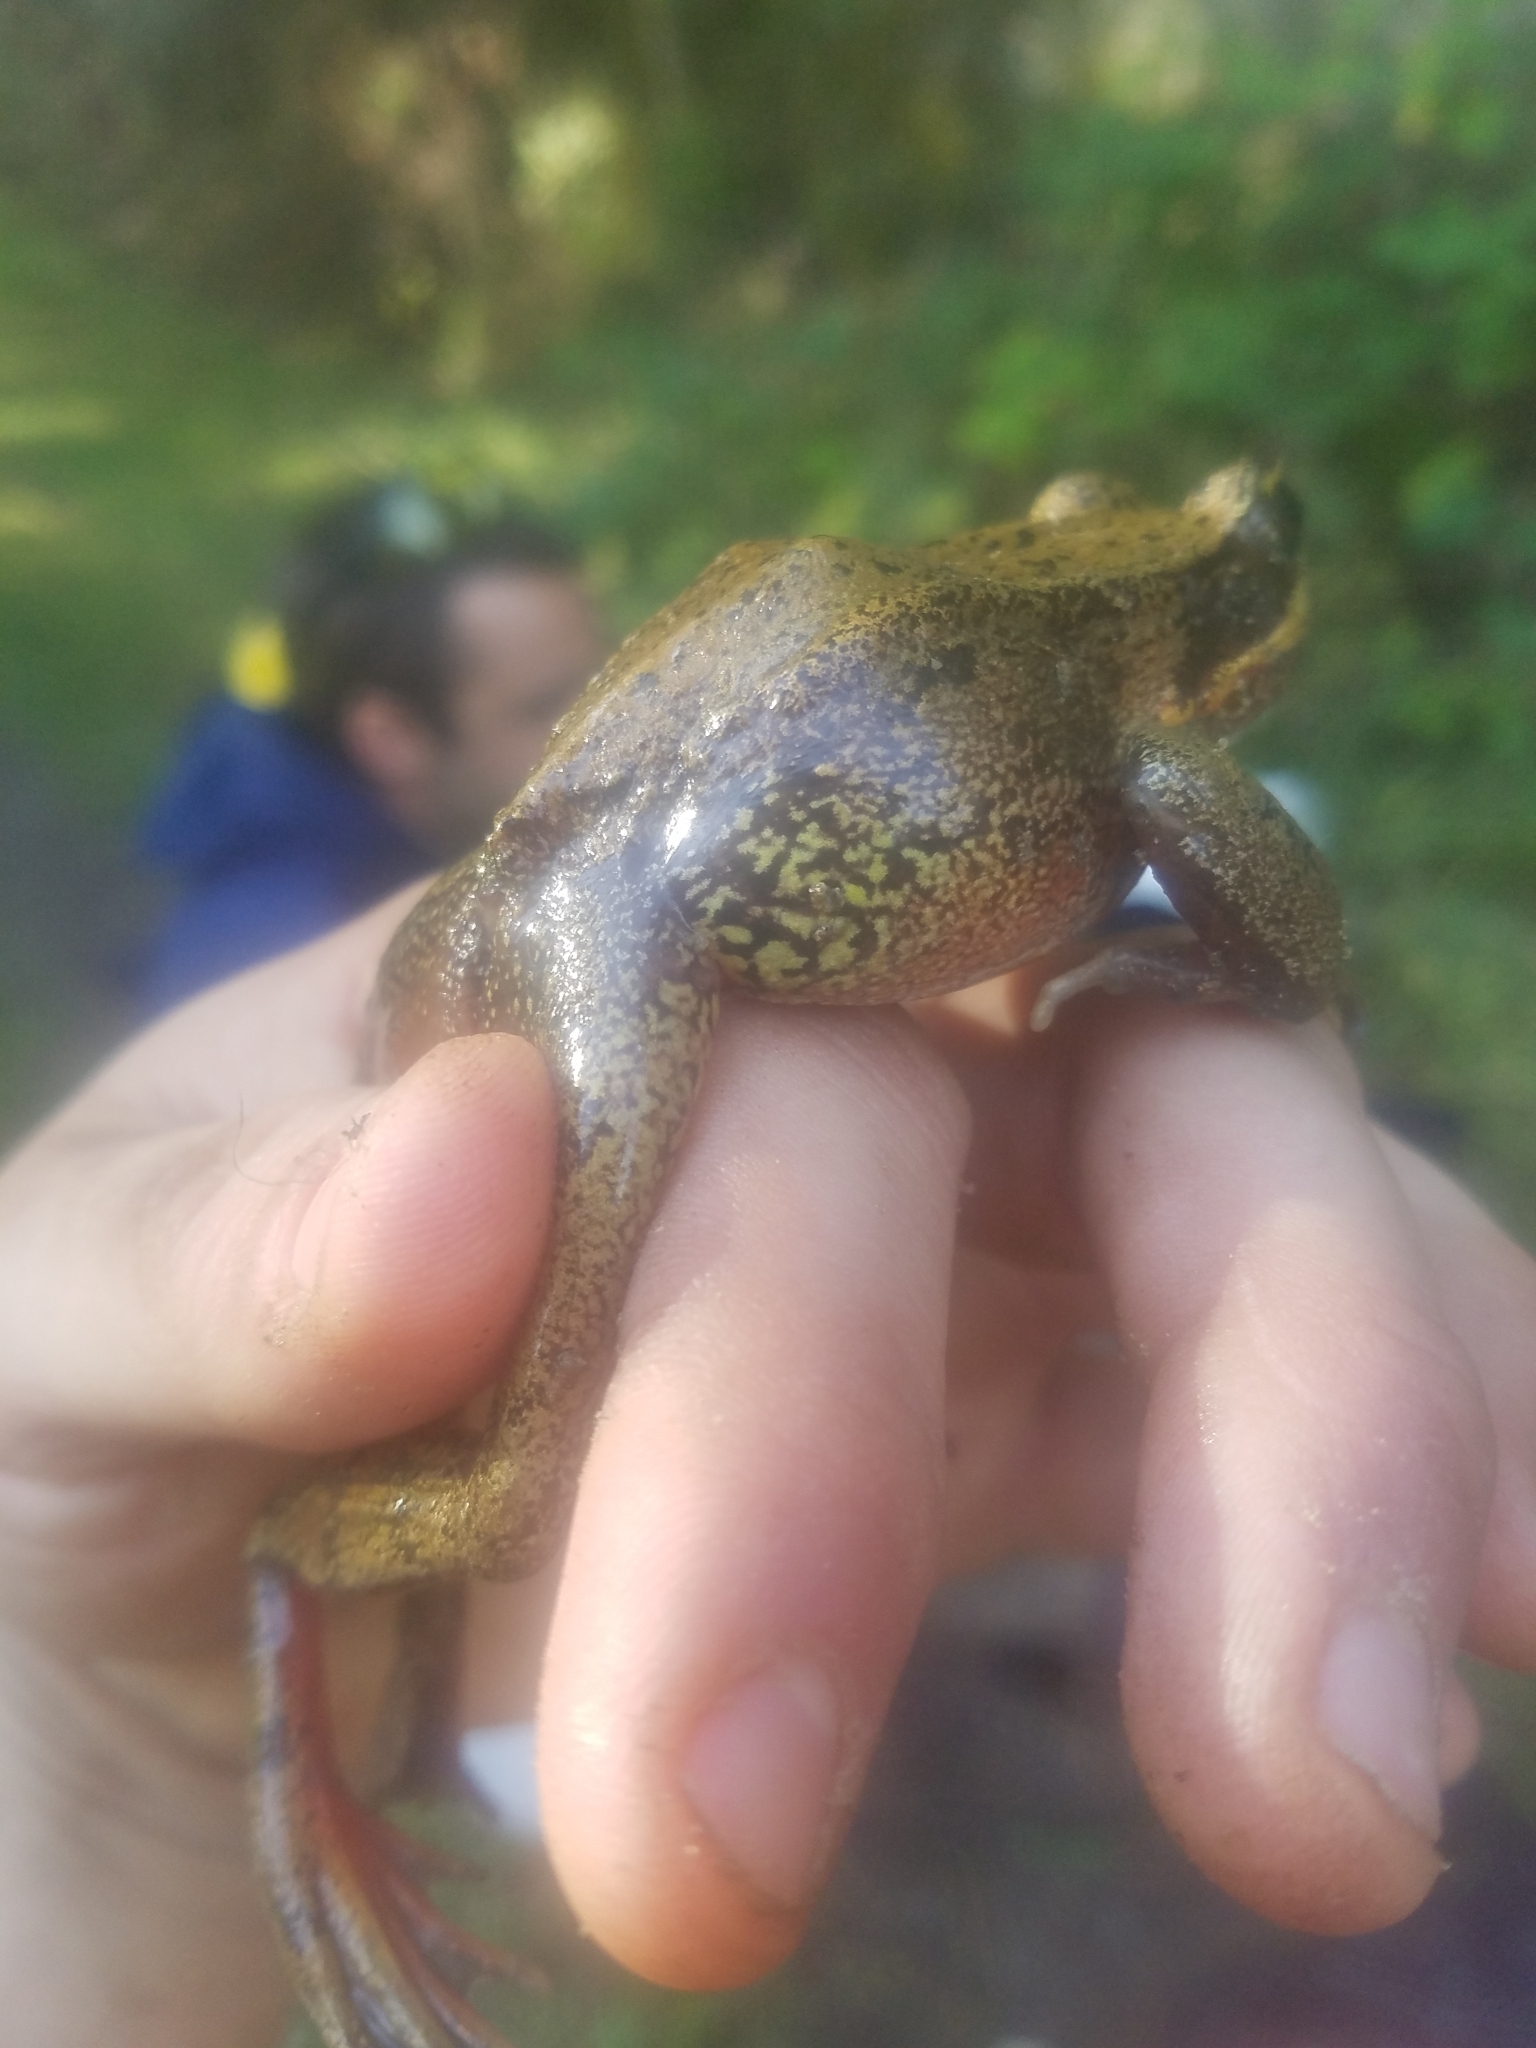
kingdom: Animalia
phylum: Chordata
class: Amphibia
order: Anura
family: Ranidae
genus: Rana
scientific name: Rana aurora
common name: Red-legged frog
